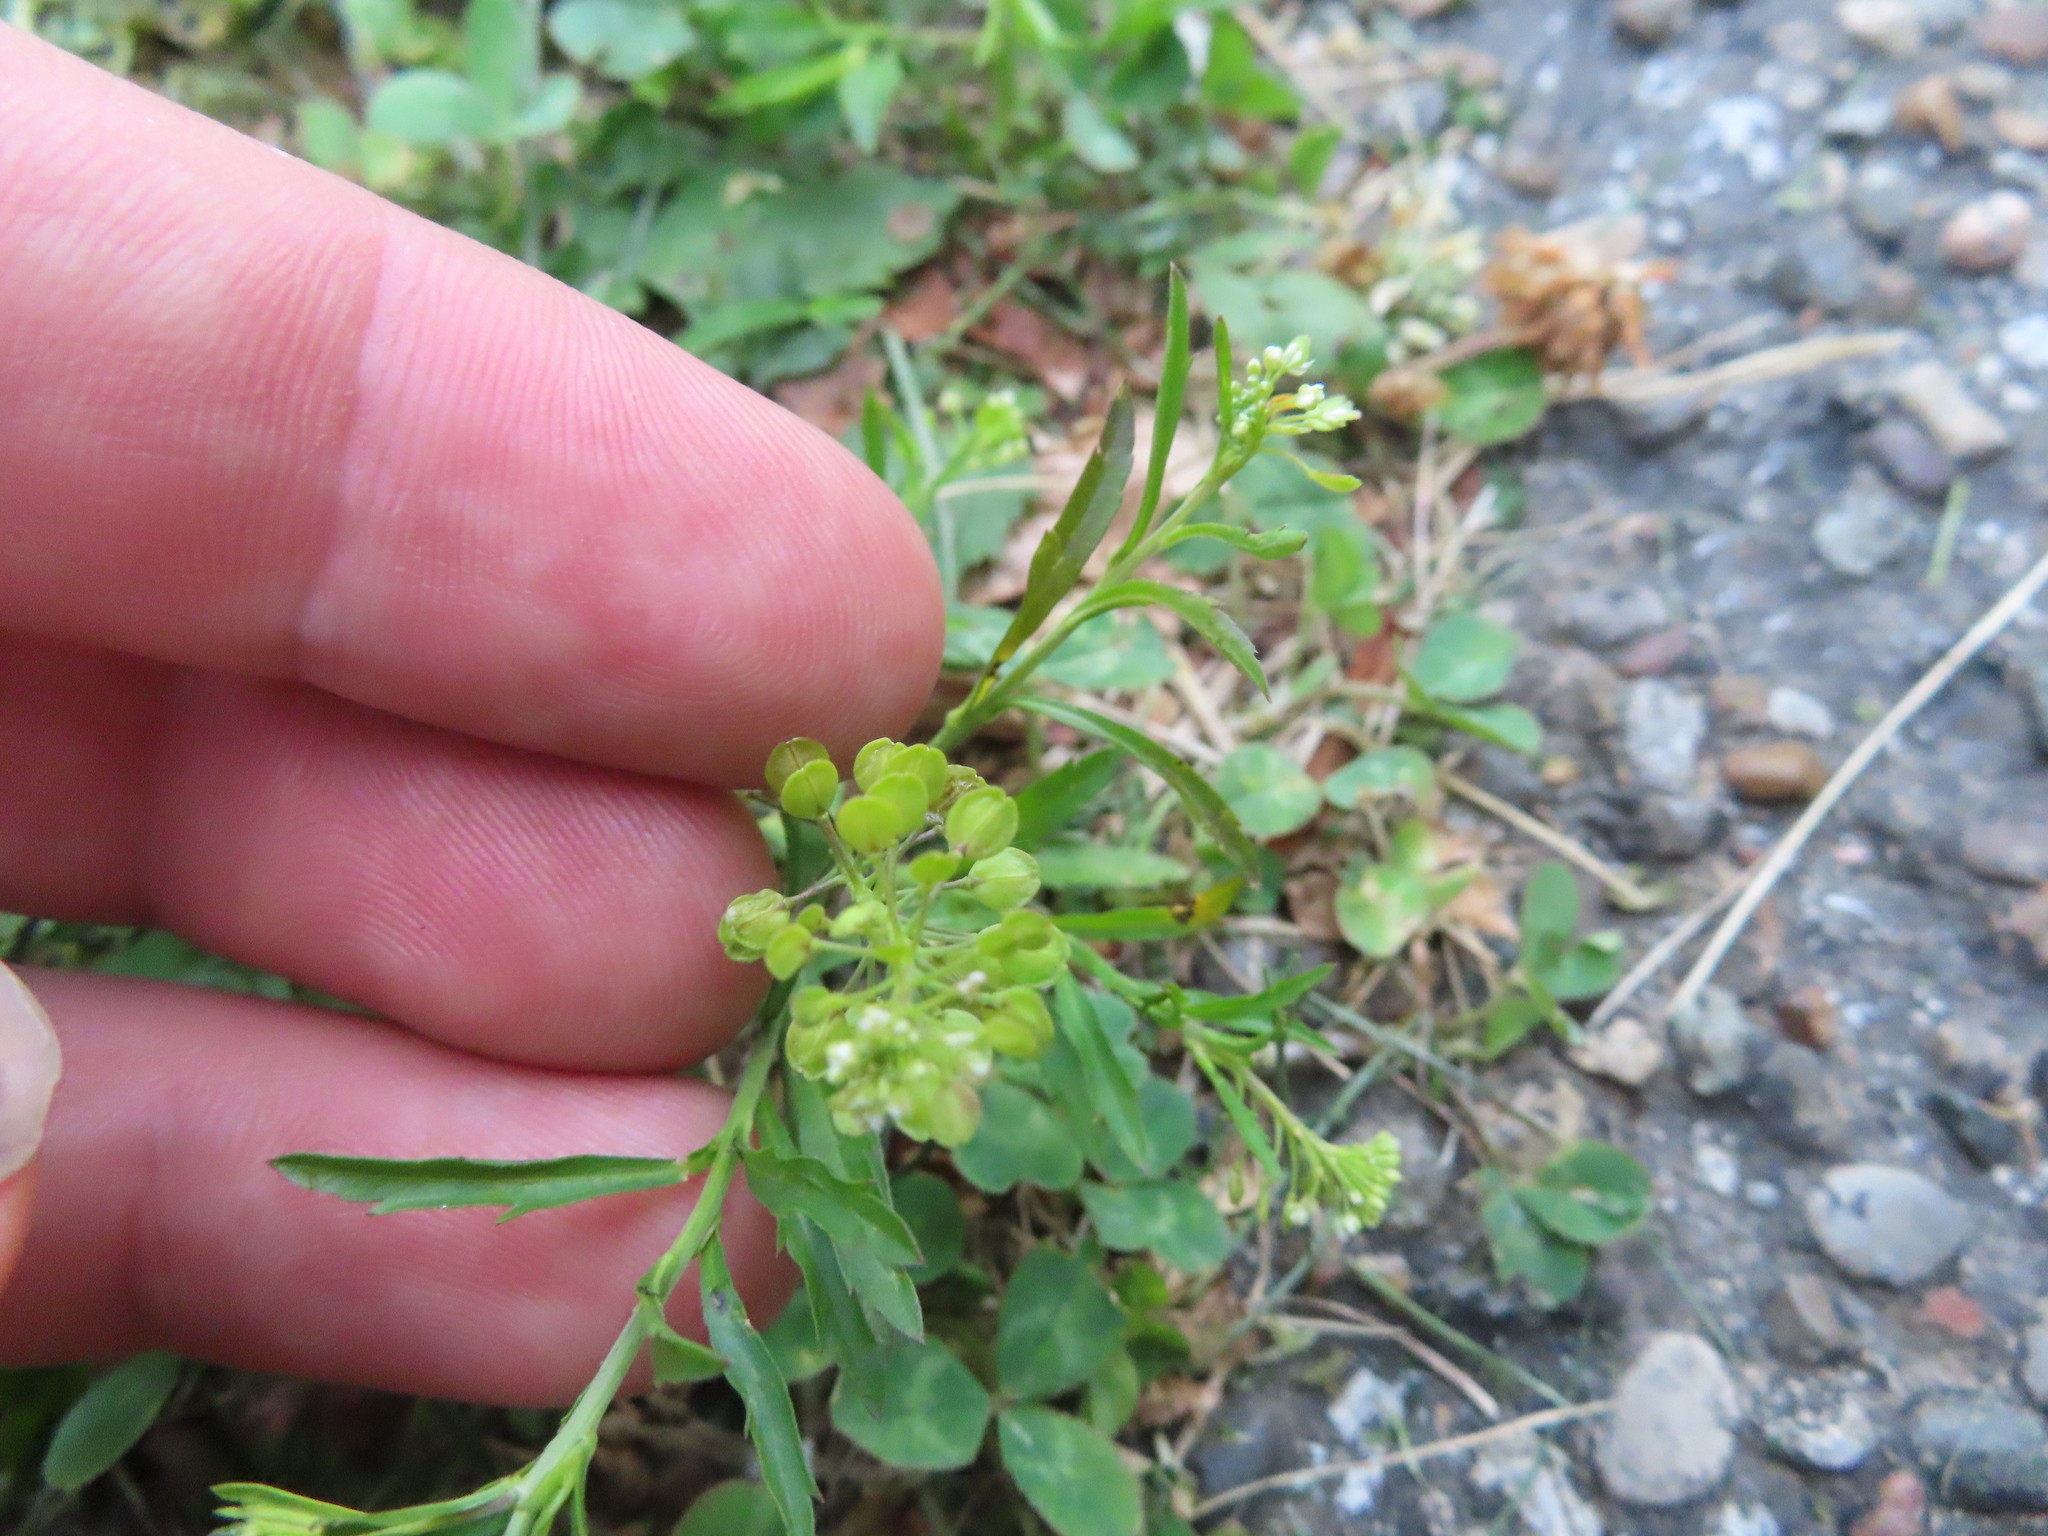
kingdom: Plantae
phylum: Tracheophyta
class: Magnoliopsida
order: Brassicales
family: Brassicaceae
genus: Lepidium
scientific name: Lepidium virginicum
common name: Least pepperwort
